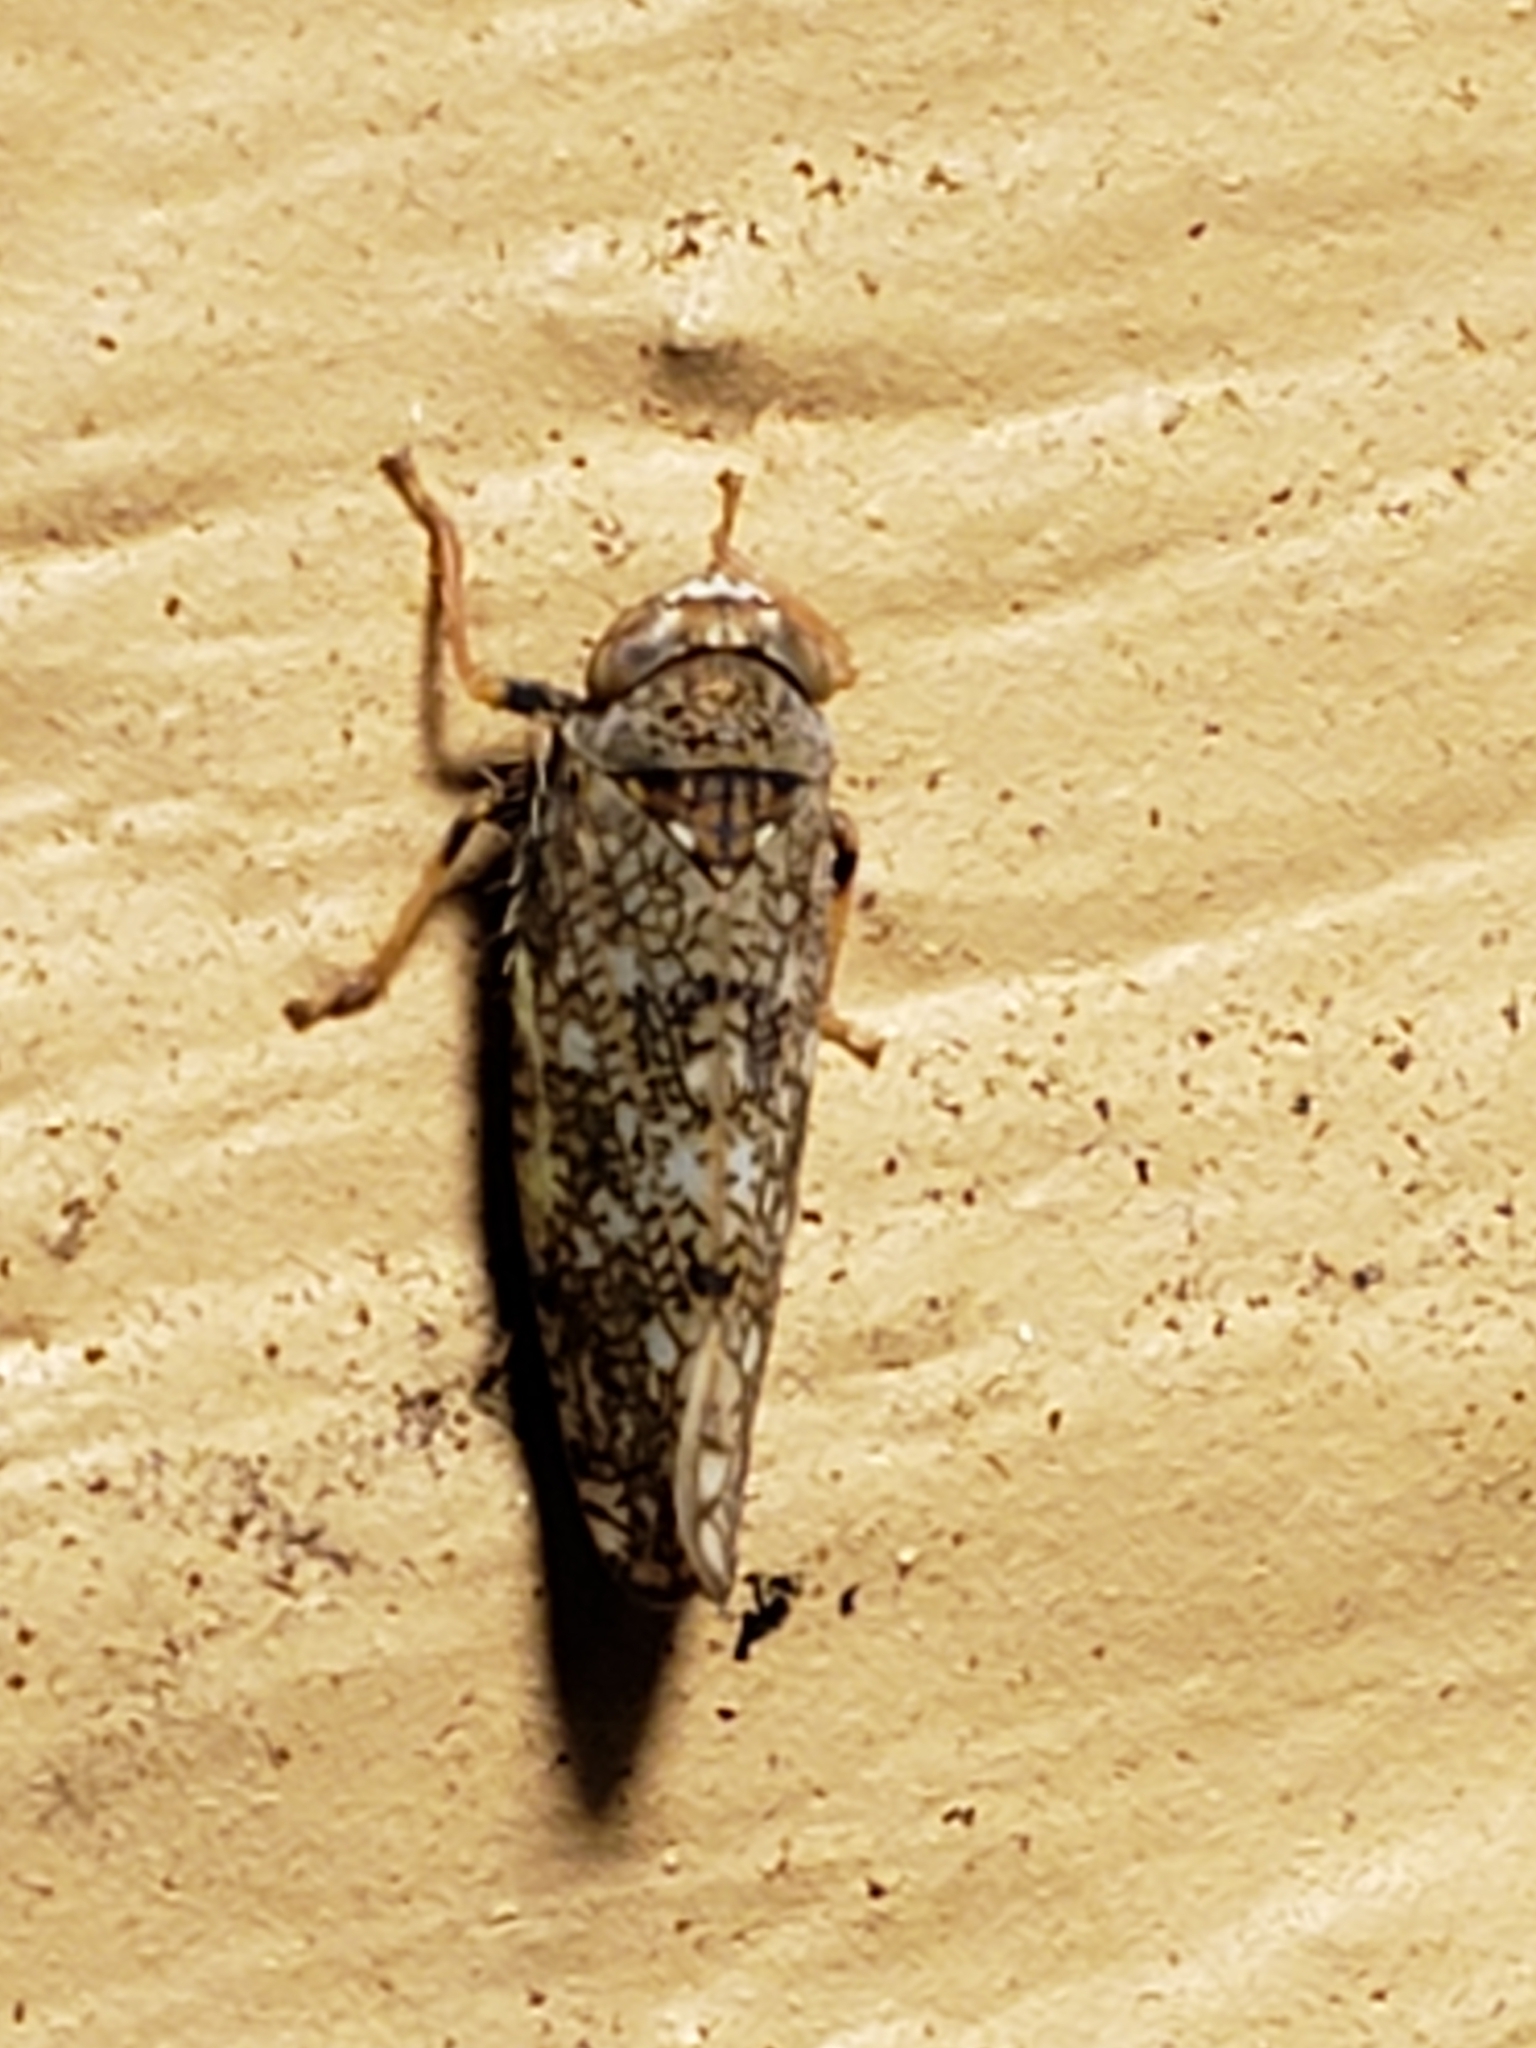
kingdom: Animalia
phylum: Arthropoda
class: Insecta
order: Hemiptera
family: Cicadellidae
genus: Orientus
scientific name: Orientus ishidae
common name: Japanese leafhopper
